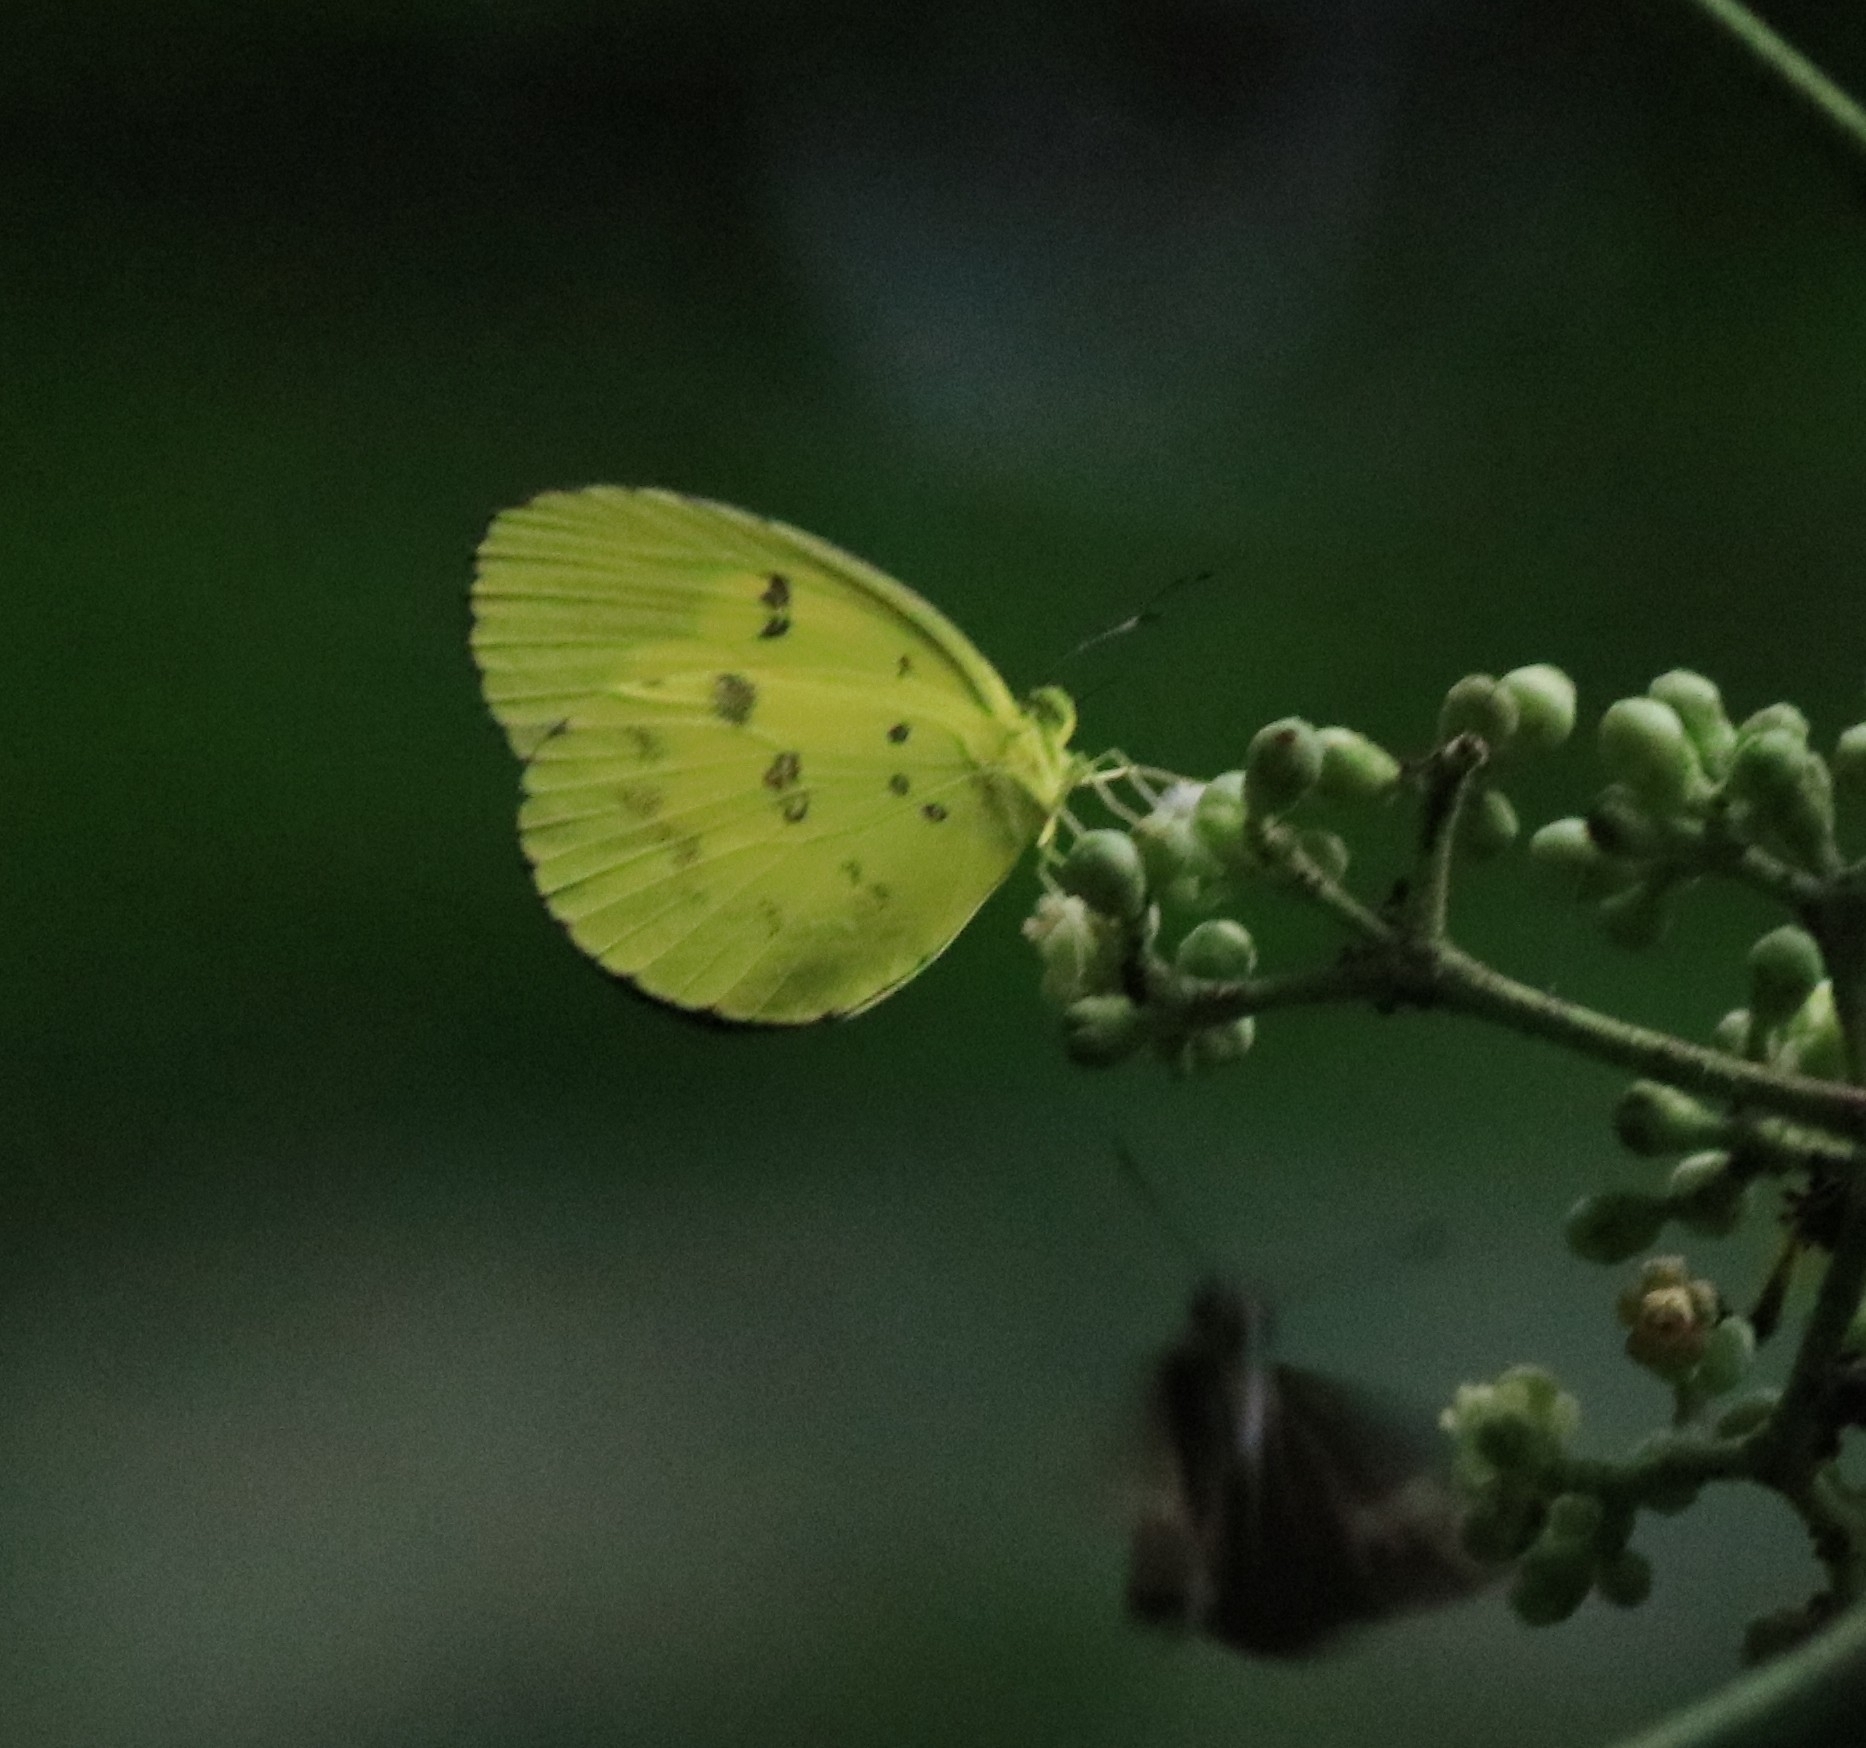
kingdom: Animalia
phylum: Arthropoda
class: Insecta
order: Lepidoptera
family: Pieridae
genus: Eurema
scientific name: Eurema hecabe
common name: Pale grass yellow
